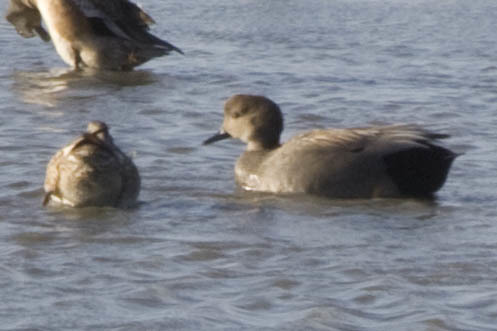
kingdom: Animalia
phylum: Chordata
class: Aves
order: Anseriformes
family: Anatidae
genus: Mareca
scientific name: Mareca strepera
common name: Gadwall
